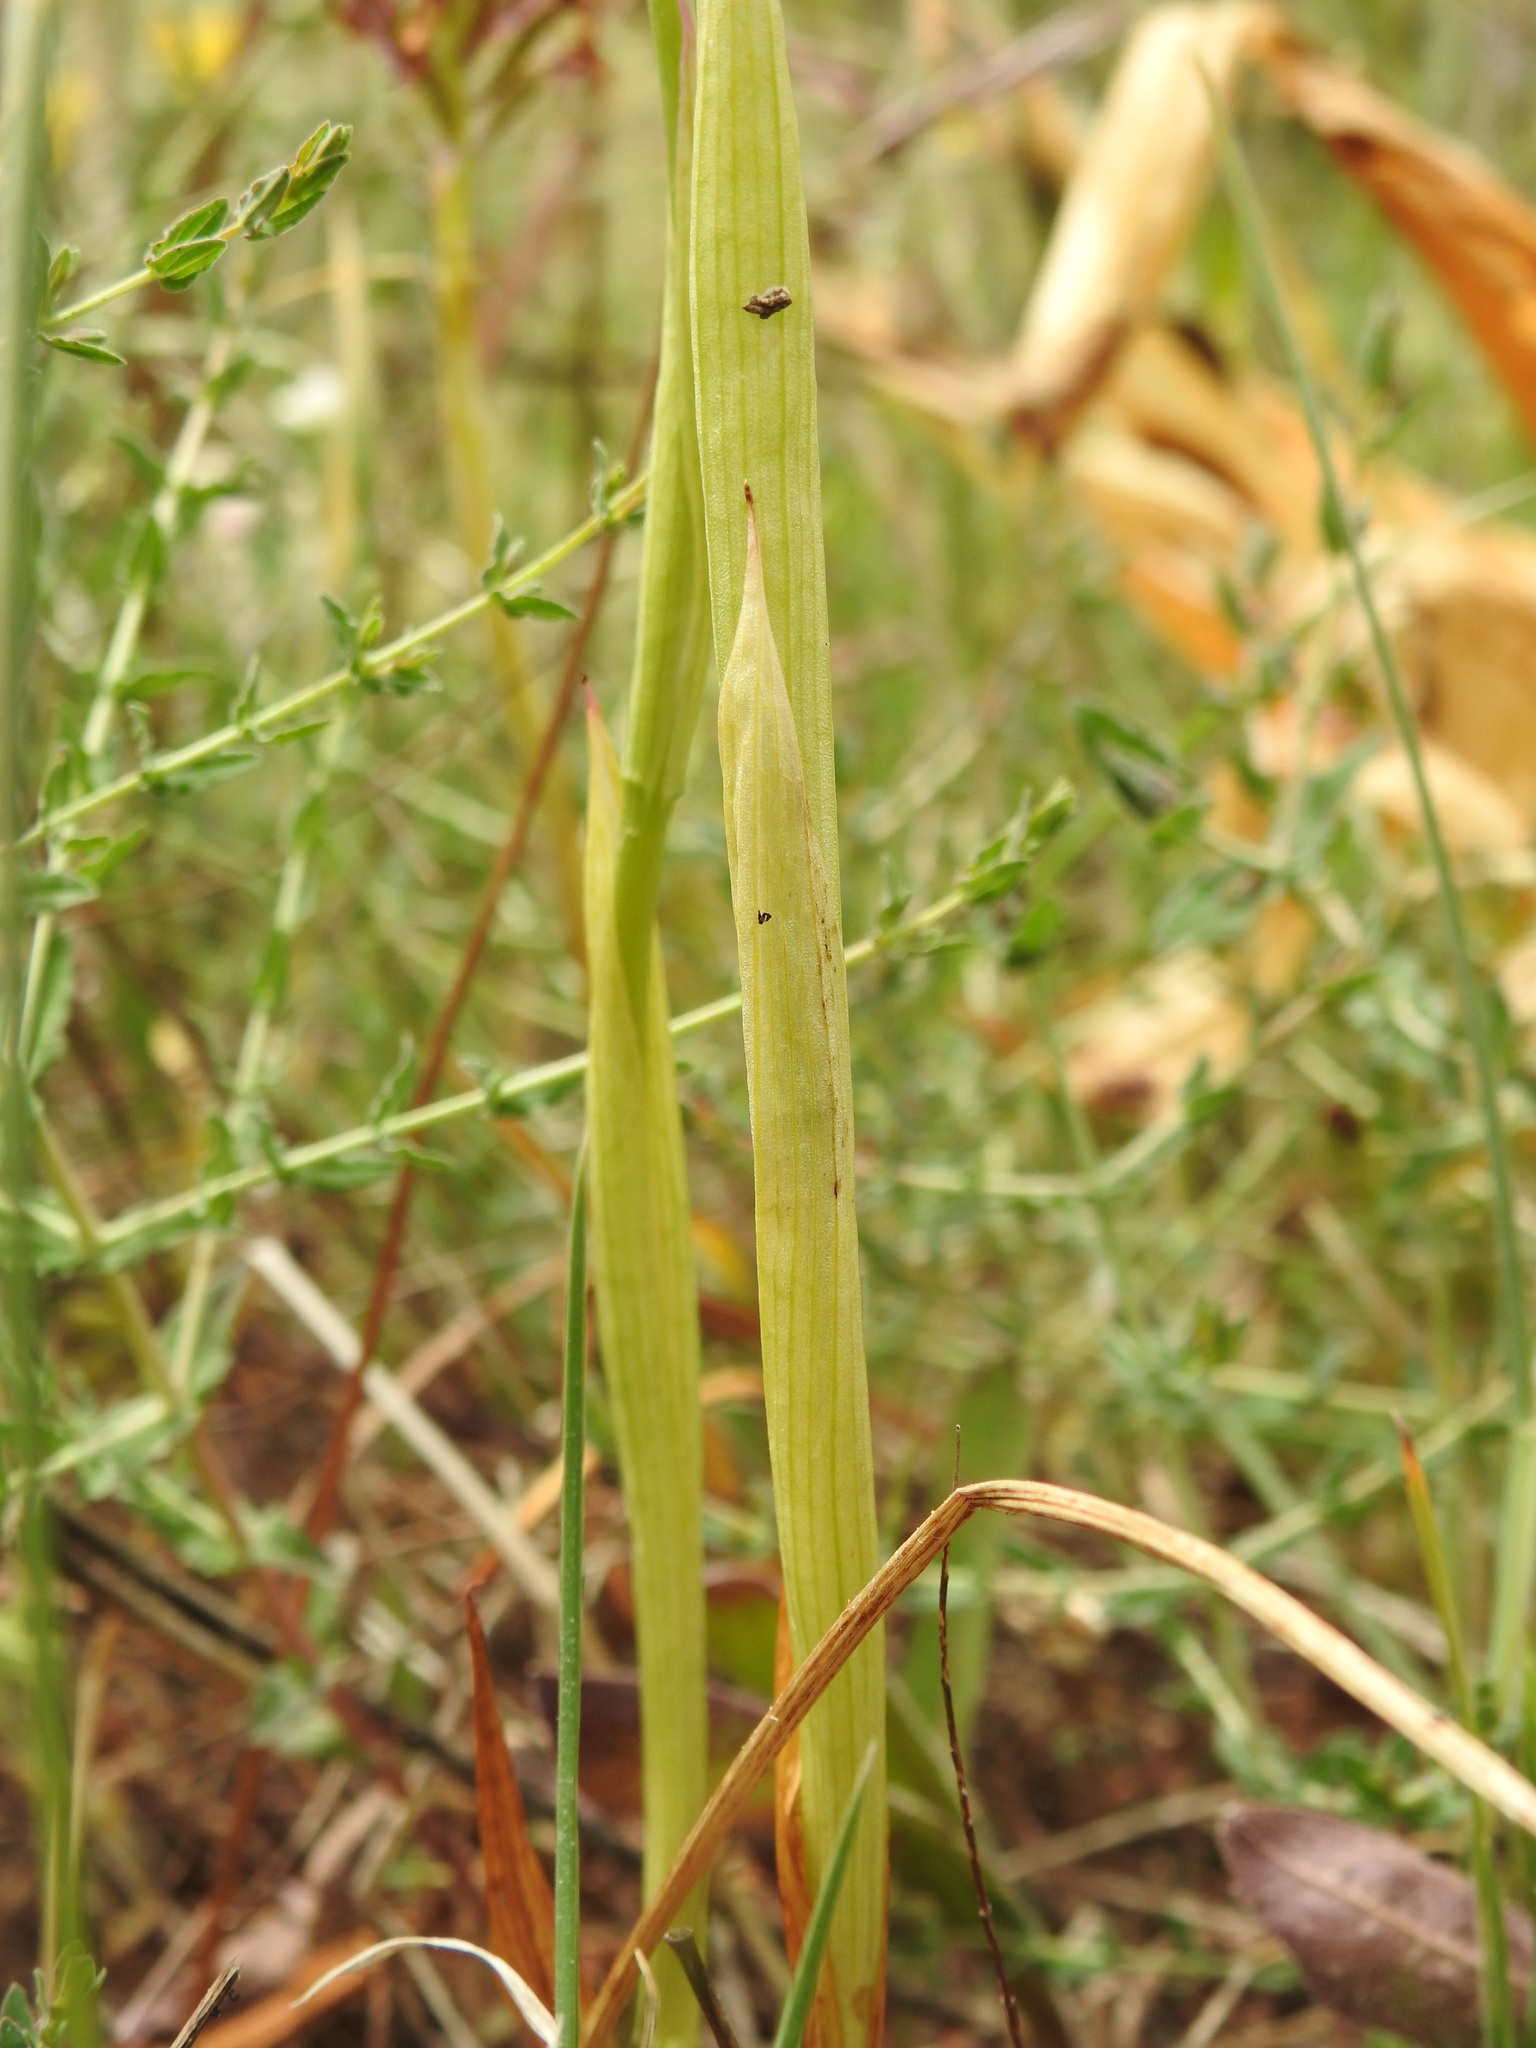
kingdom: Plantae
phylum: Tracheophyta
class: Liliopsida
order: Asparagales
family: Orchidaceae
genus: Anacamptis
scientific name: Anacamptis pyramidalis
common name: Pyramidal orchid
